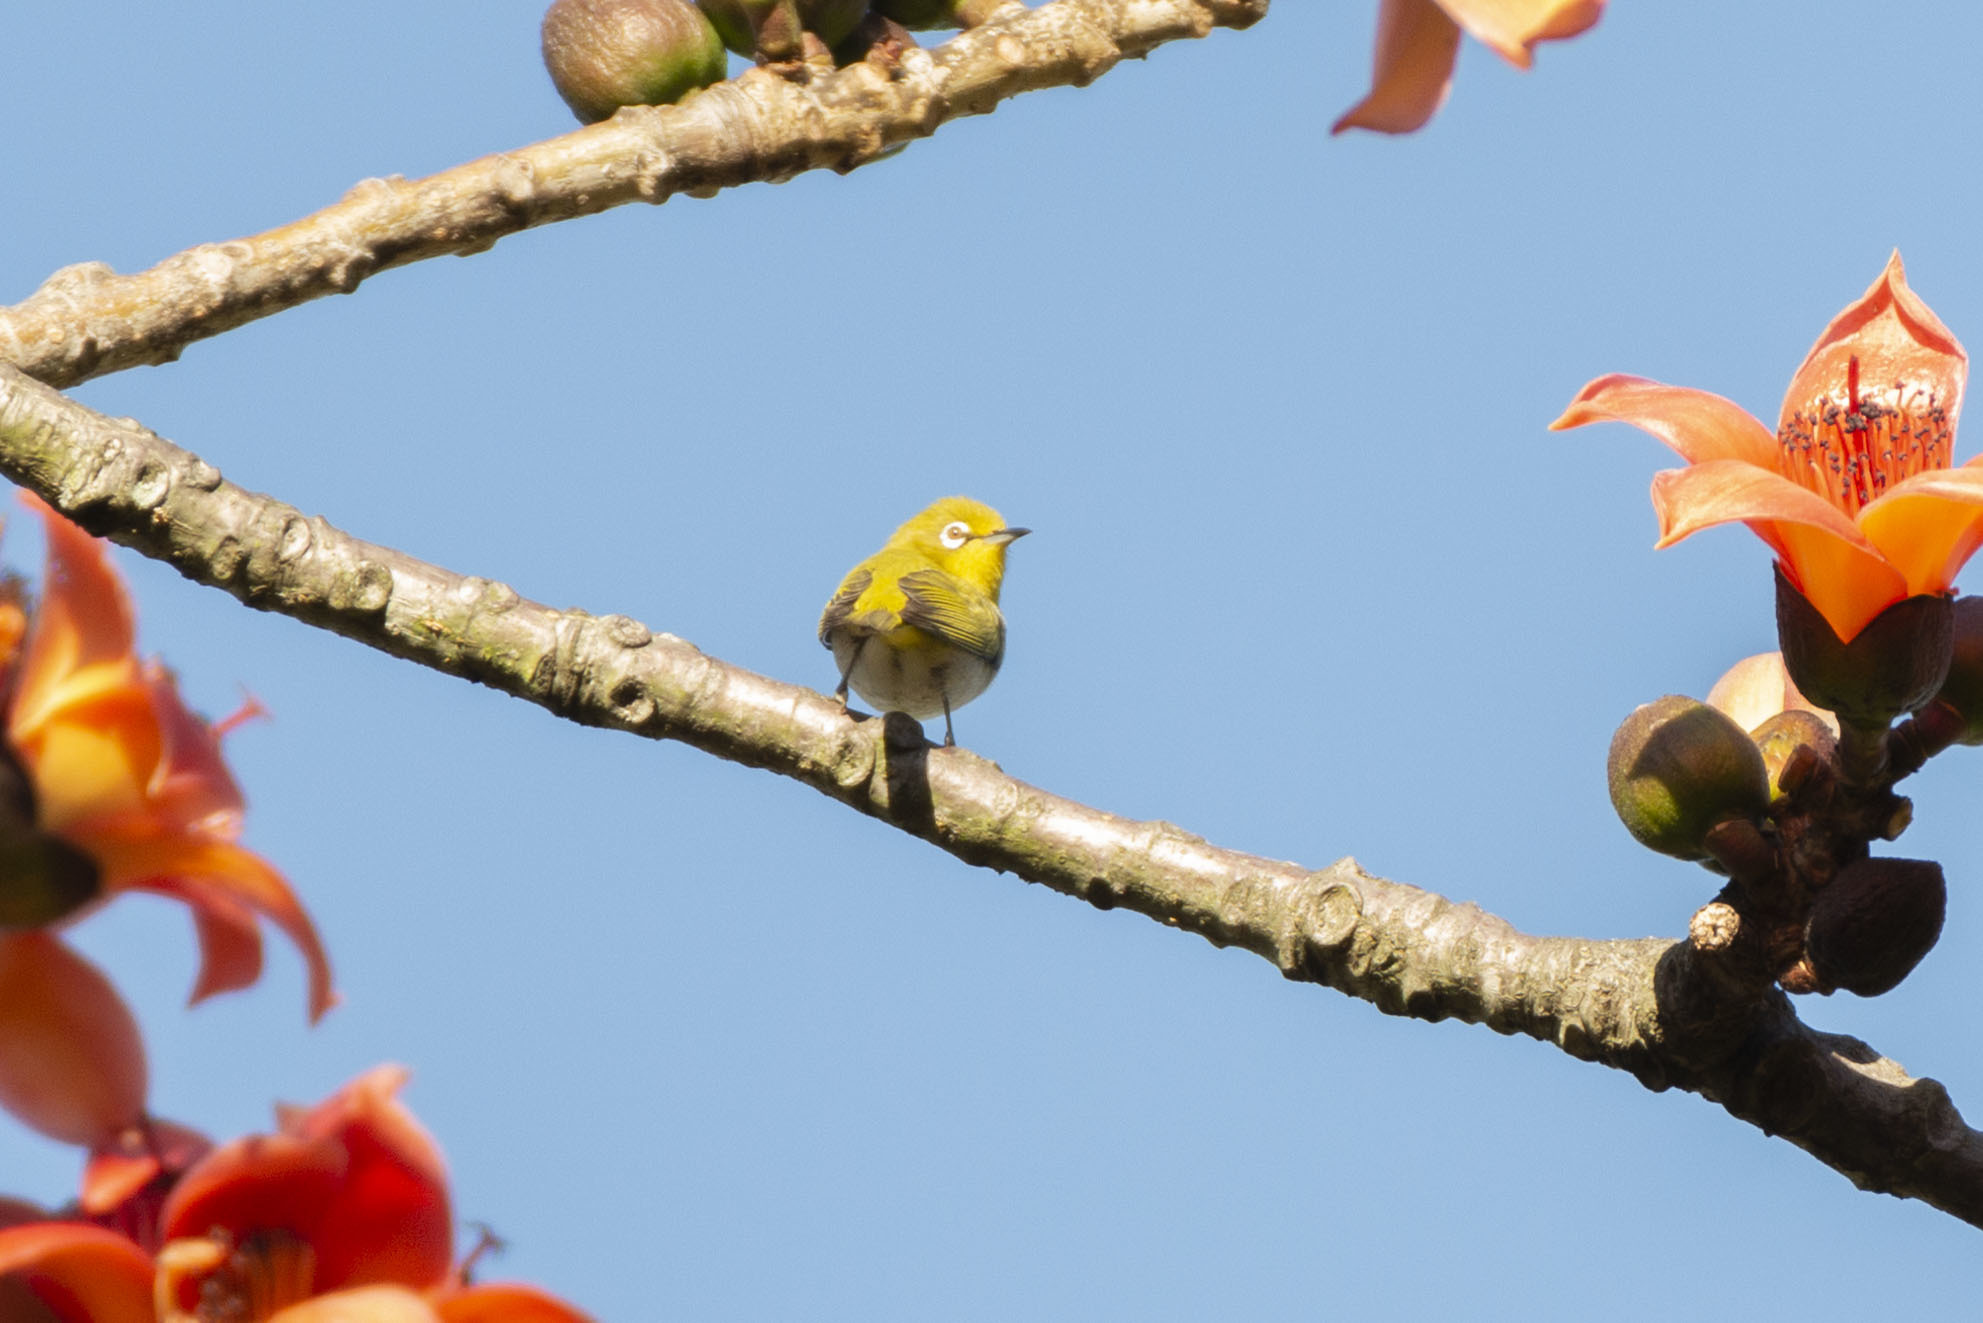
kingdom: Animalia
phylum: Chordata
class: Aves
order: Passeriformes
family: Zosteropidae
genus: Zosterops
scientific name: Zosterops simplex
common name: Swinhoe's white-eye
